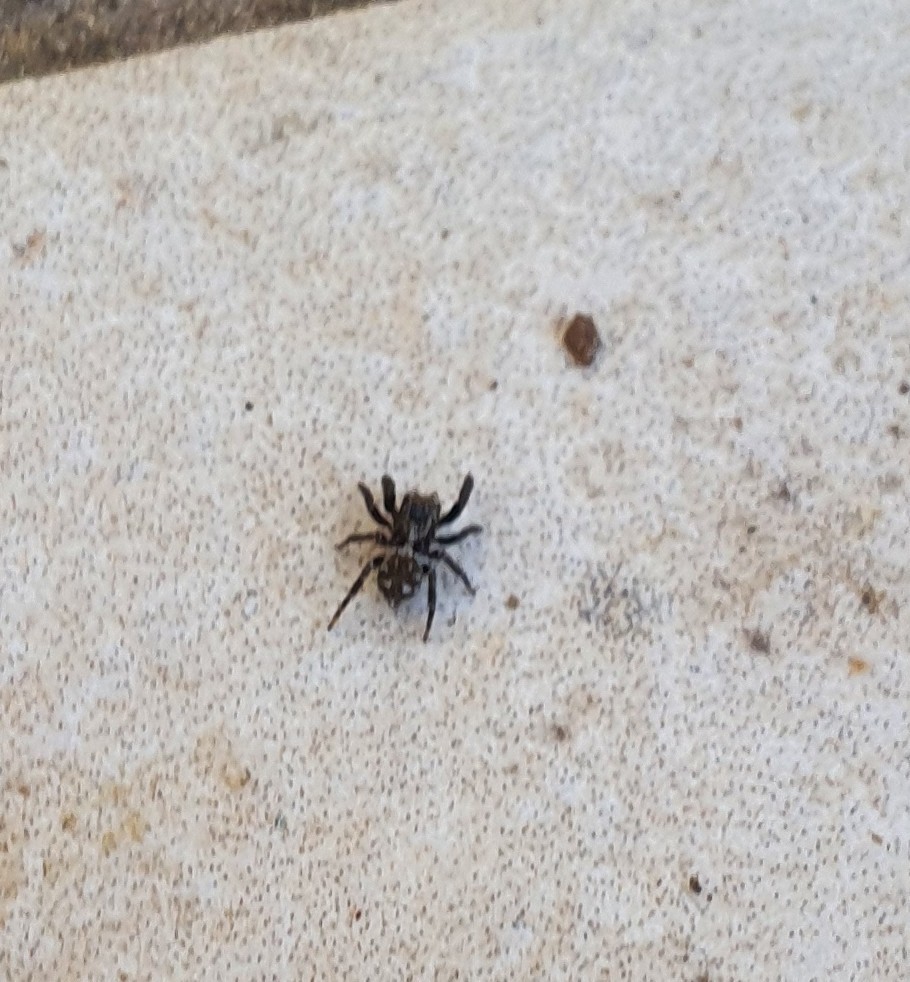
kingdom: Animalia
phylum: Arthropoda
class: Arachnida
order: Araneae
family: Salticidae
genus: Pseudeuophrys
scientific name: Pseudeuophrys erratica
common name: Jumping spider
